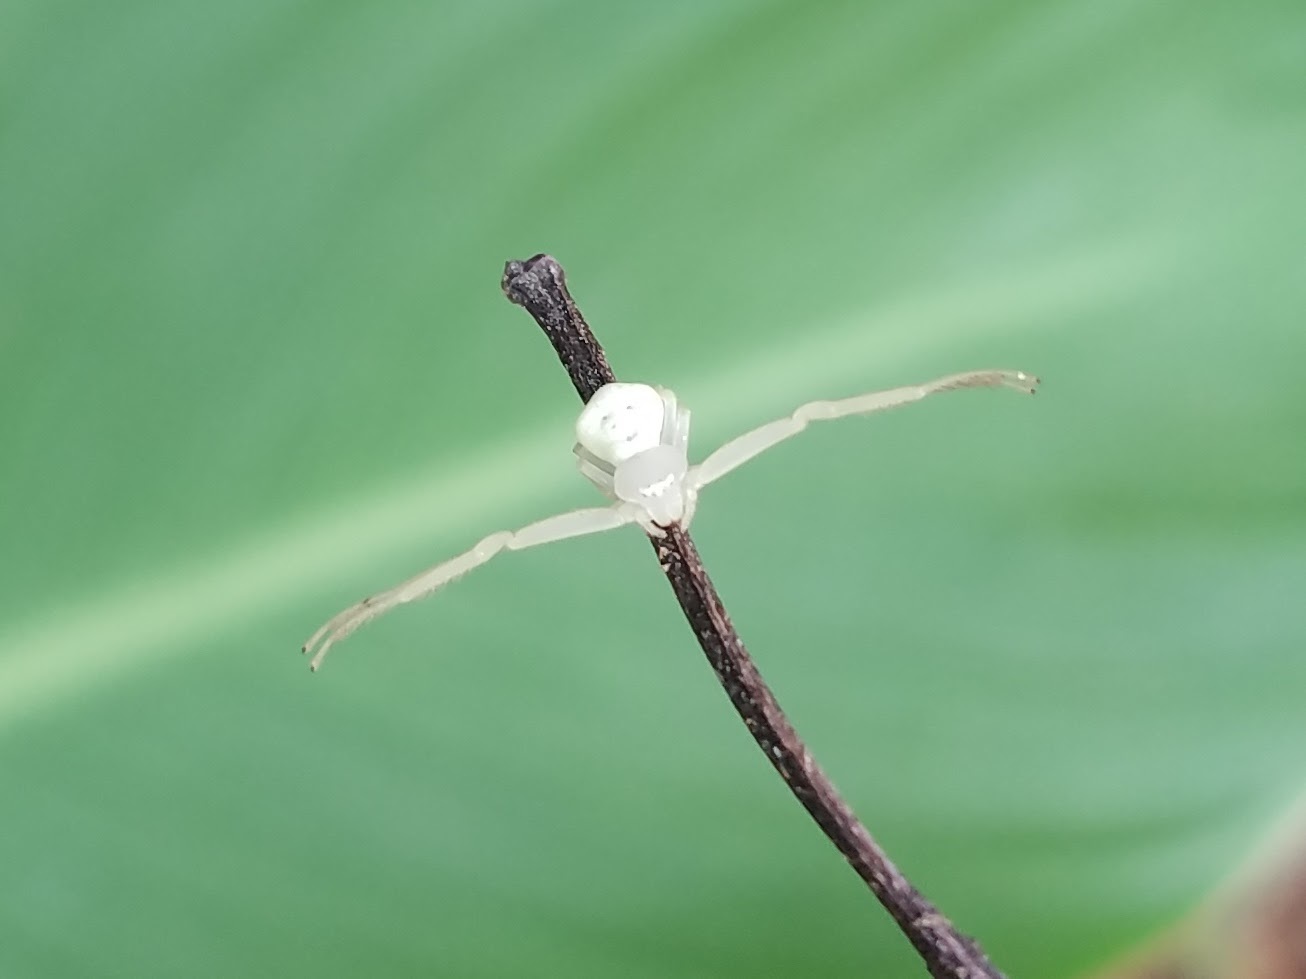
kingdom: Animalia
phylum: Arthropoda
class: Arachnida
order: Araneae
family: Thomisidae
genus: Misumessus
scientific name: Misumessus oblongus
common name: American green crab spider
